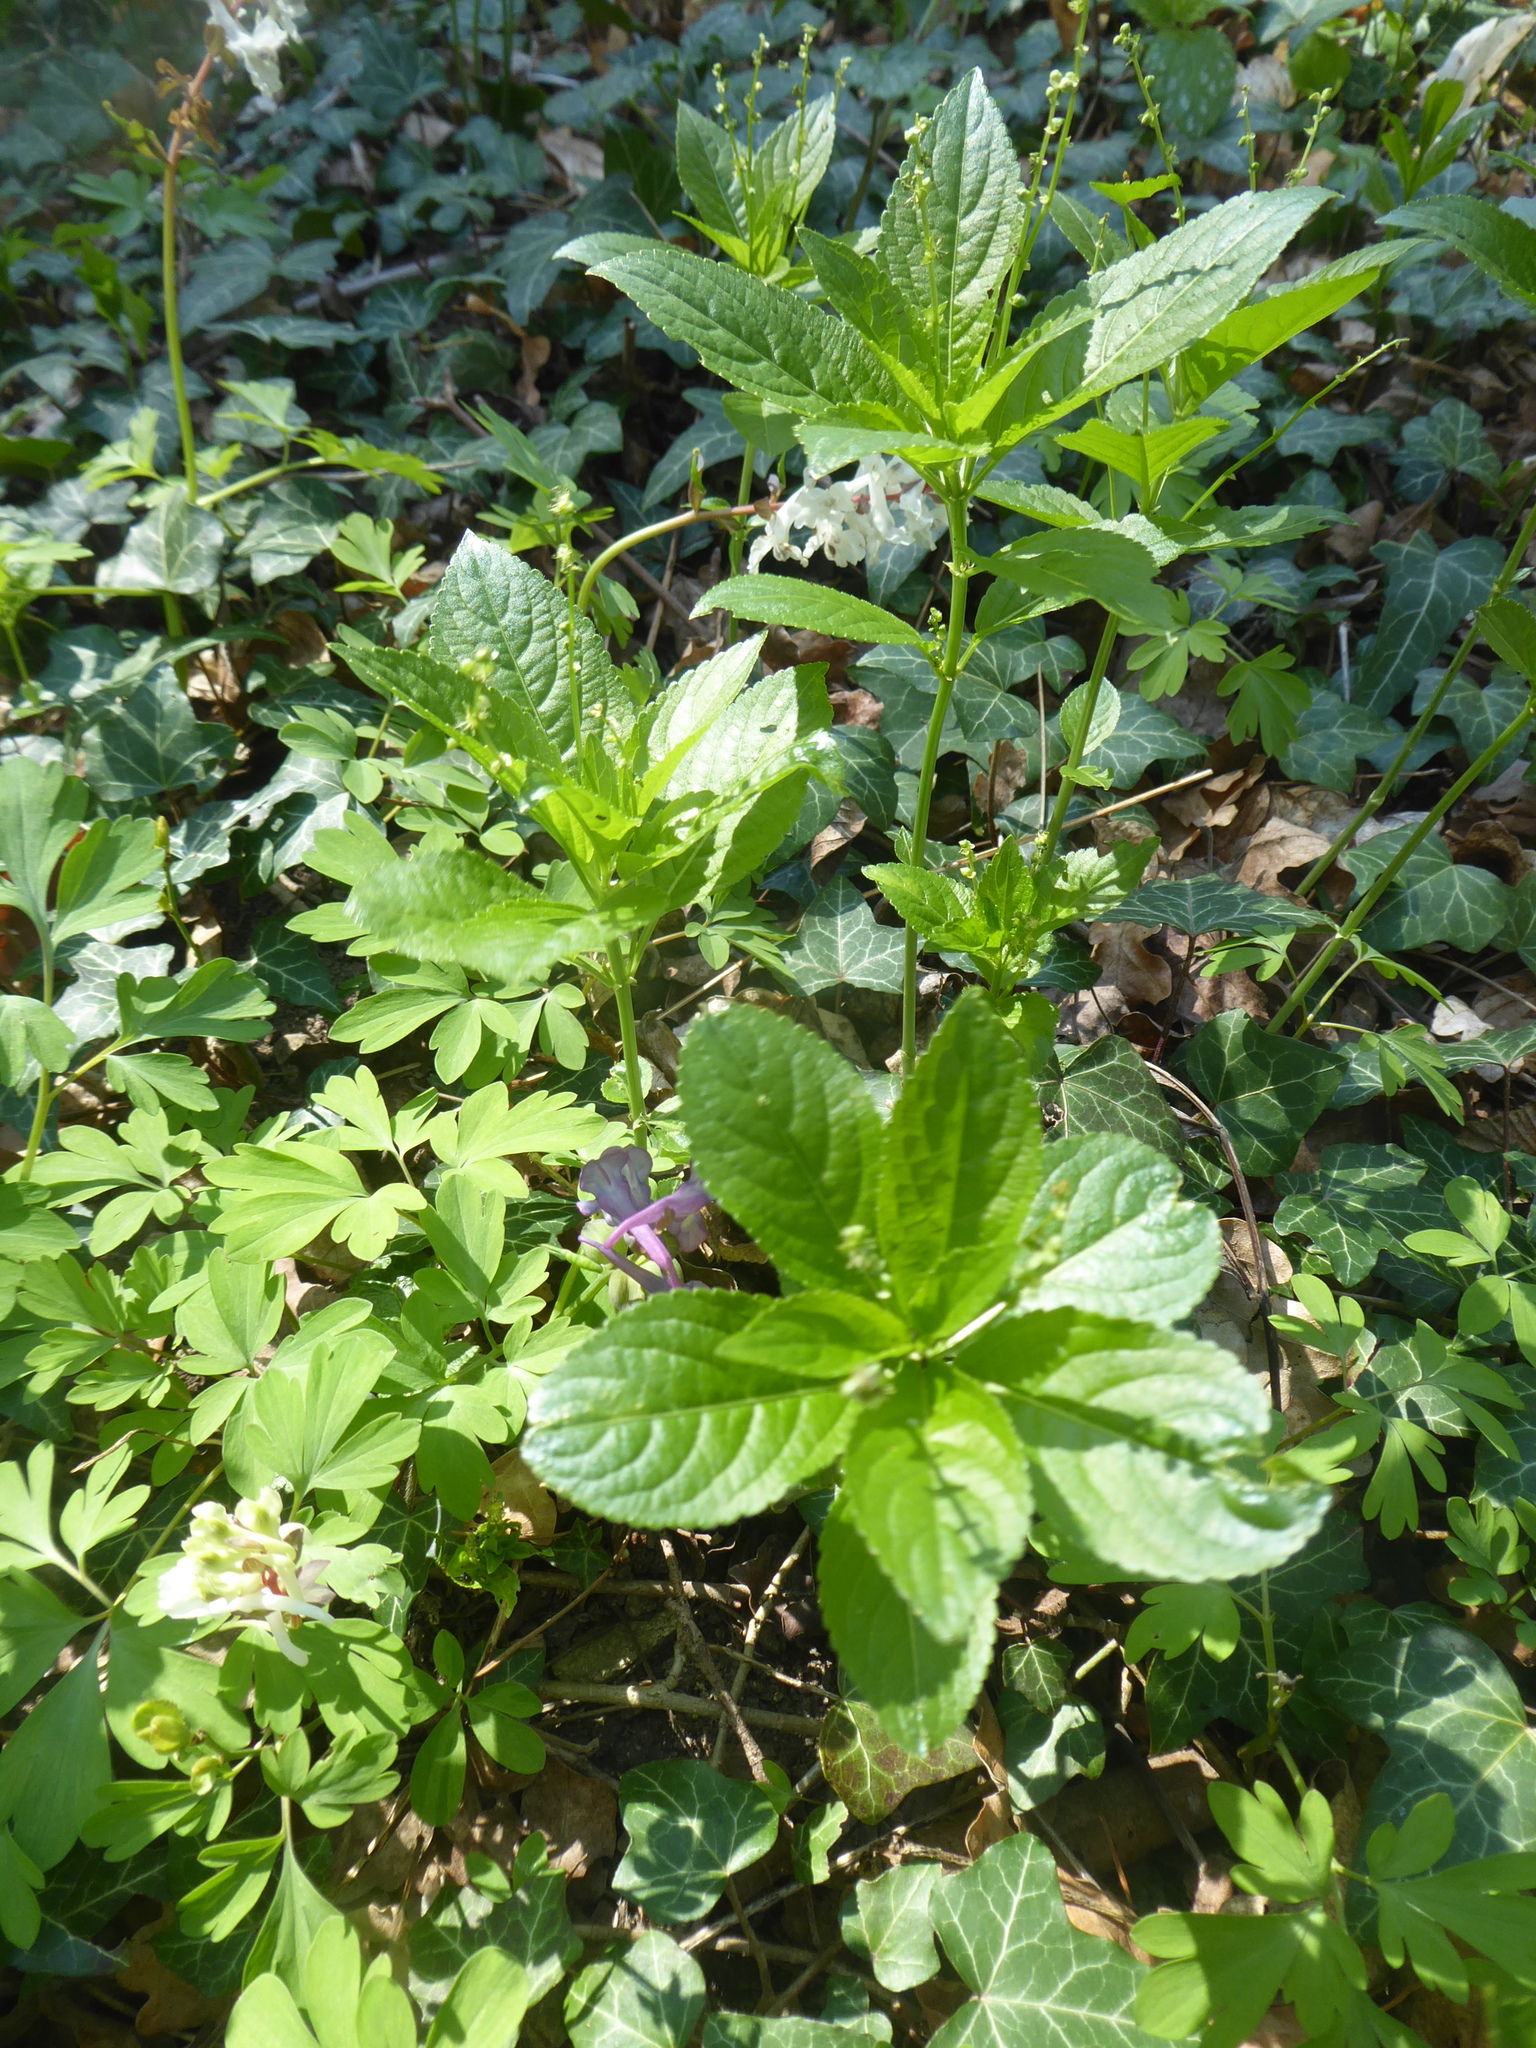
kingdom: Plantae
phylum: Tracheophyta
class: Magnoliopsida
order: Malpighiales
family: Euphorbiaceae
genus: Mercurialis
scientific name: Mercurialis perennis
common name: Dog mercury
